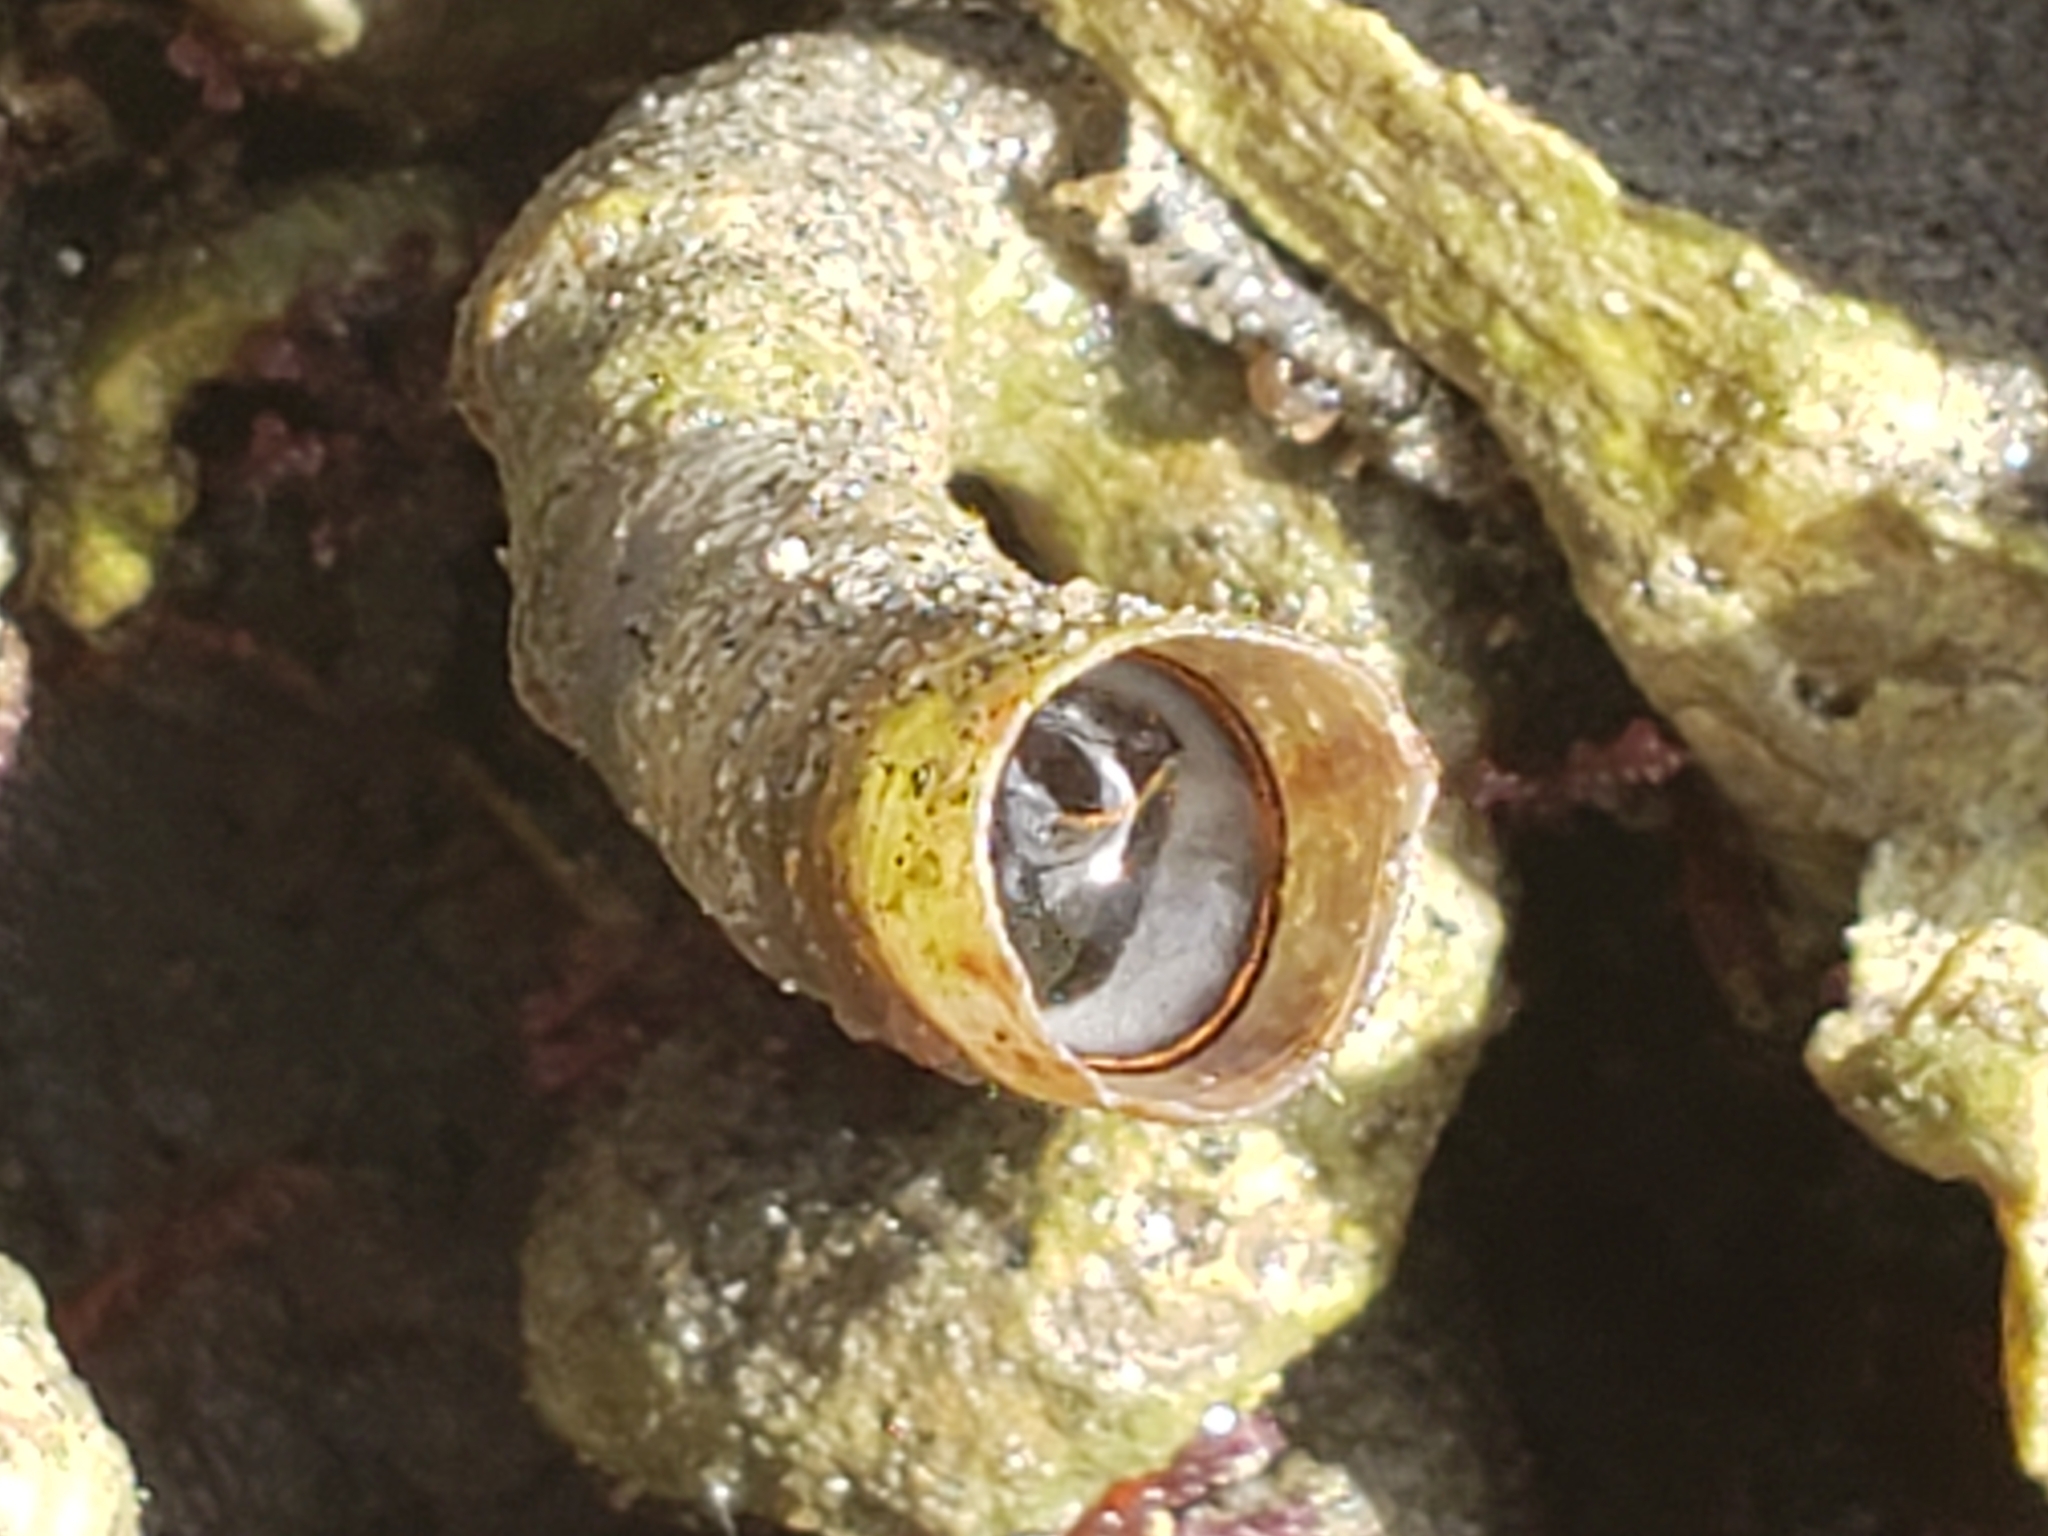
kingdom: Animalia
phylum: Mollusca
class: Gastropoda
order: Littorinimorpha
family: Vermetidae
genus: Thylacodes
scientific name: Thylacodes squamigerus
